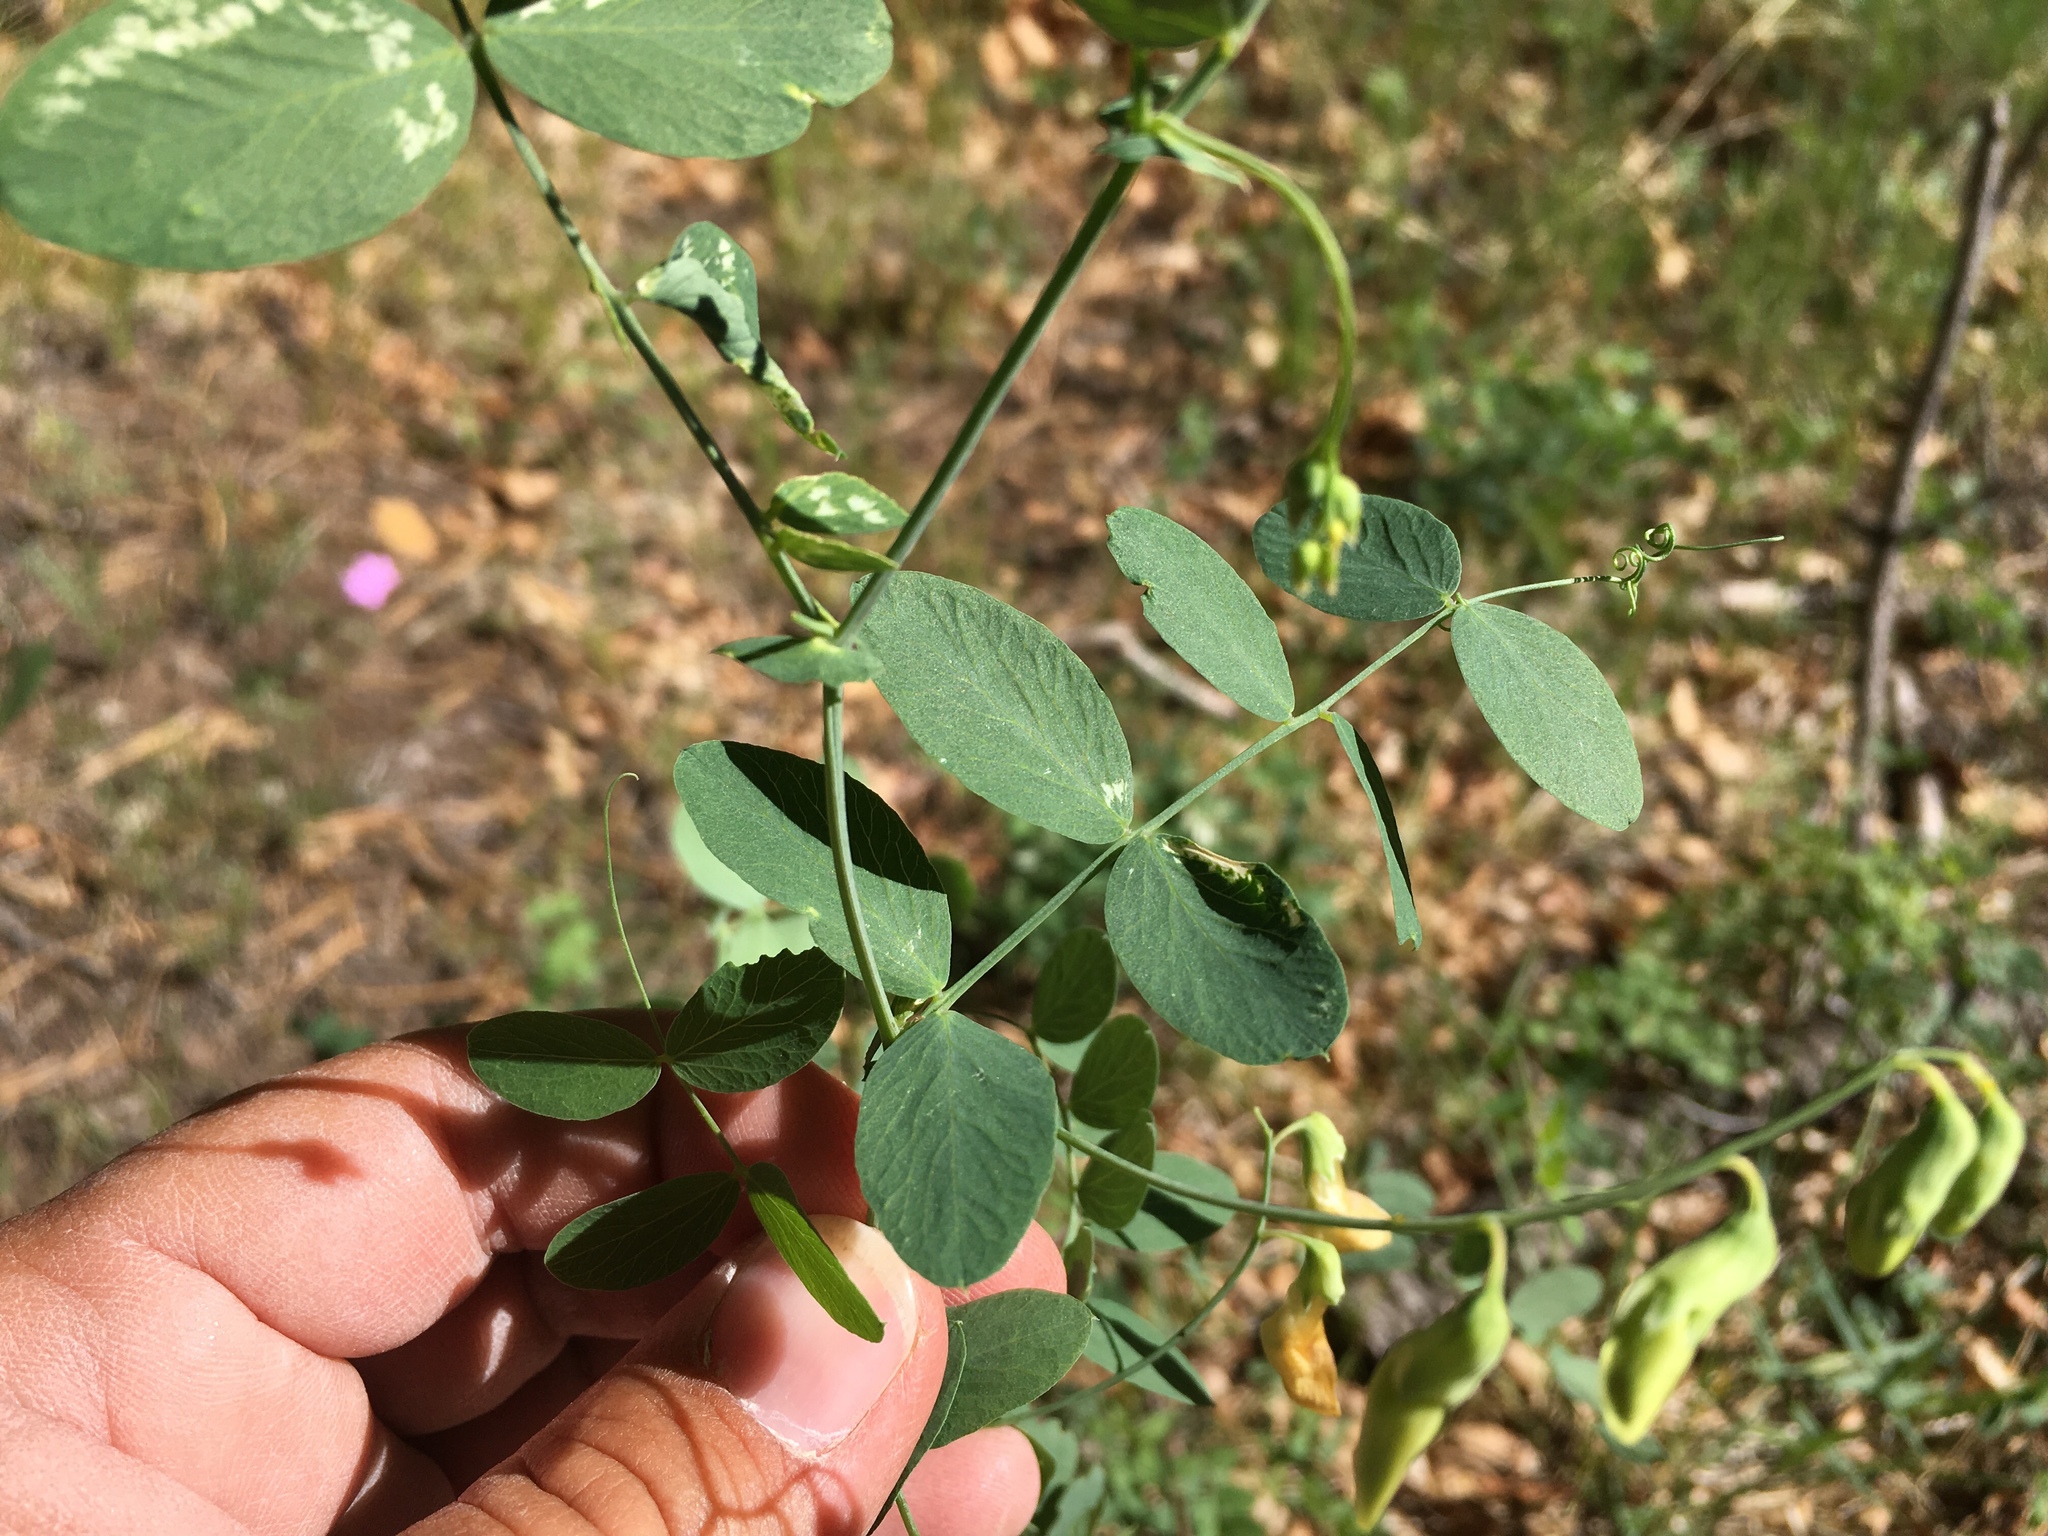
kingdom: Plantae
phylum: Tracheophyta
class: Magnoliopsida
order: Fabales
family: Fabaceae
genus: Lathyrus
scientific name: Lathyrus lanszwertii
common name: Lanszwert's vetchling
